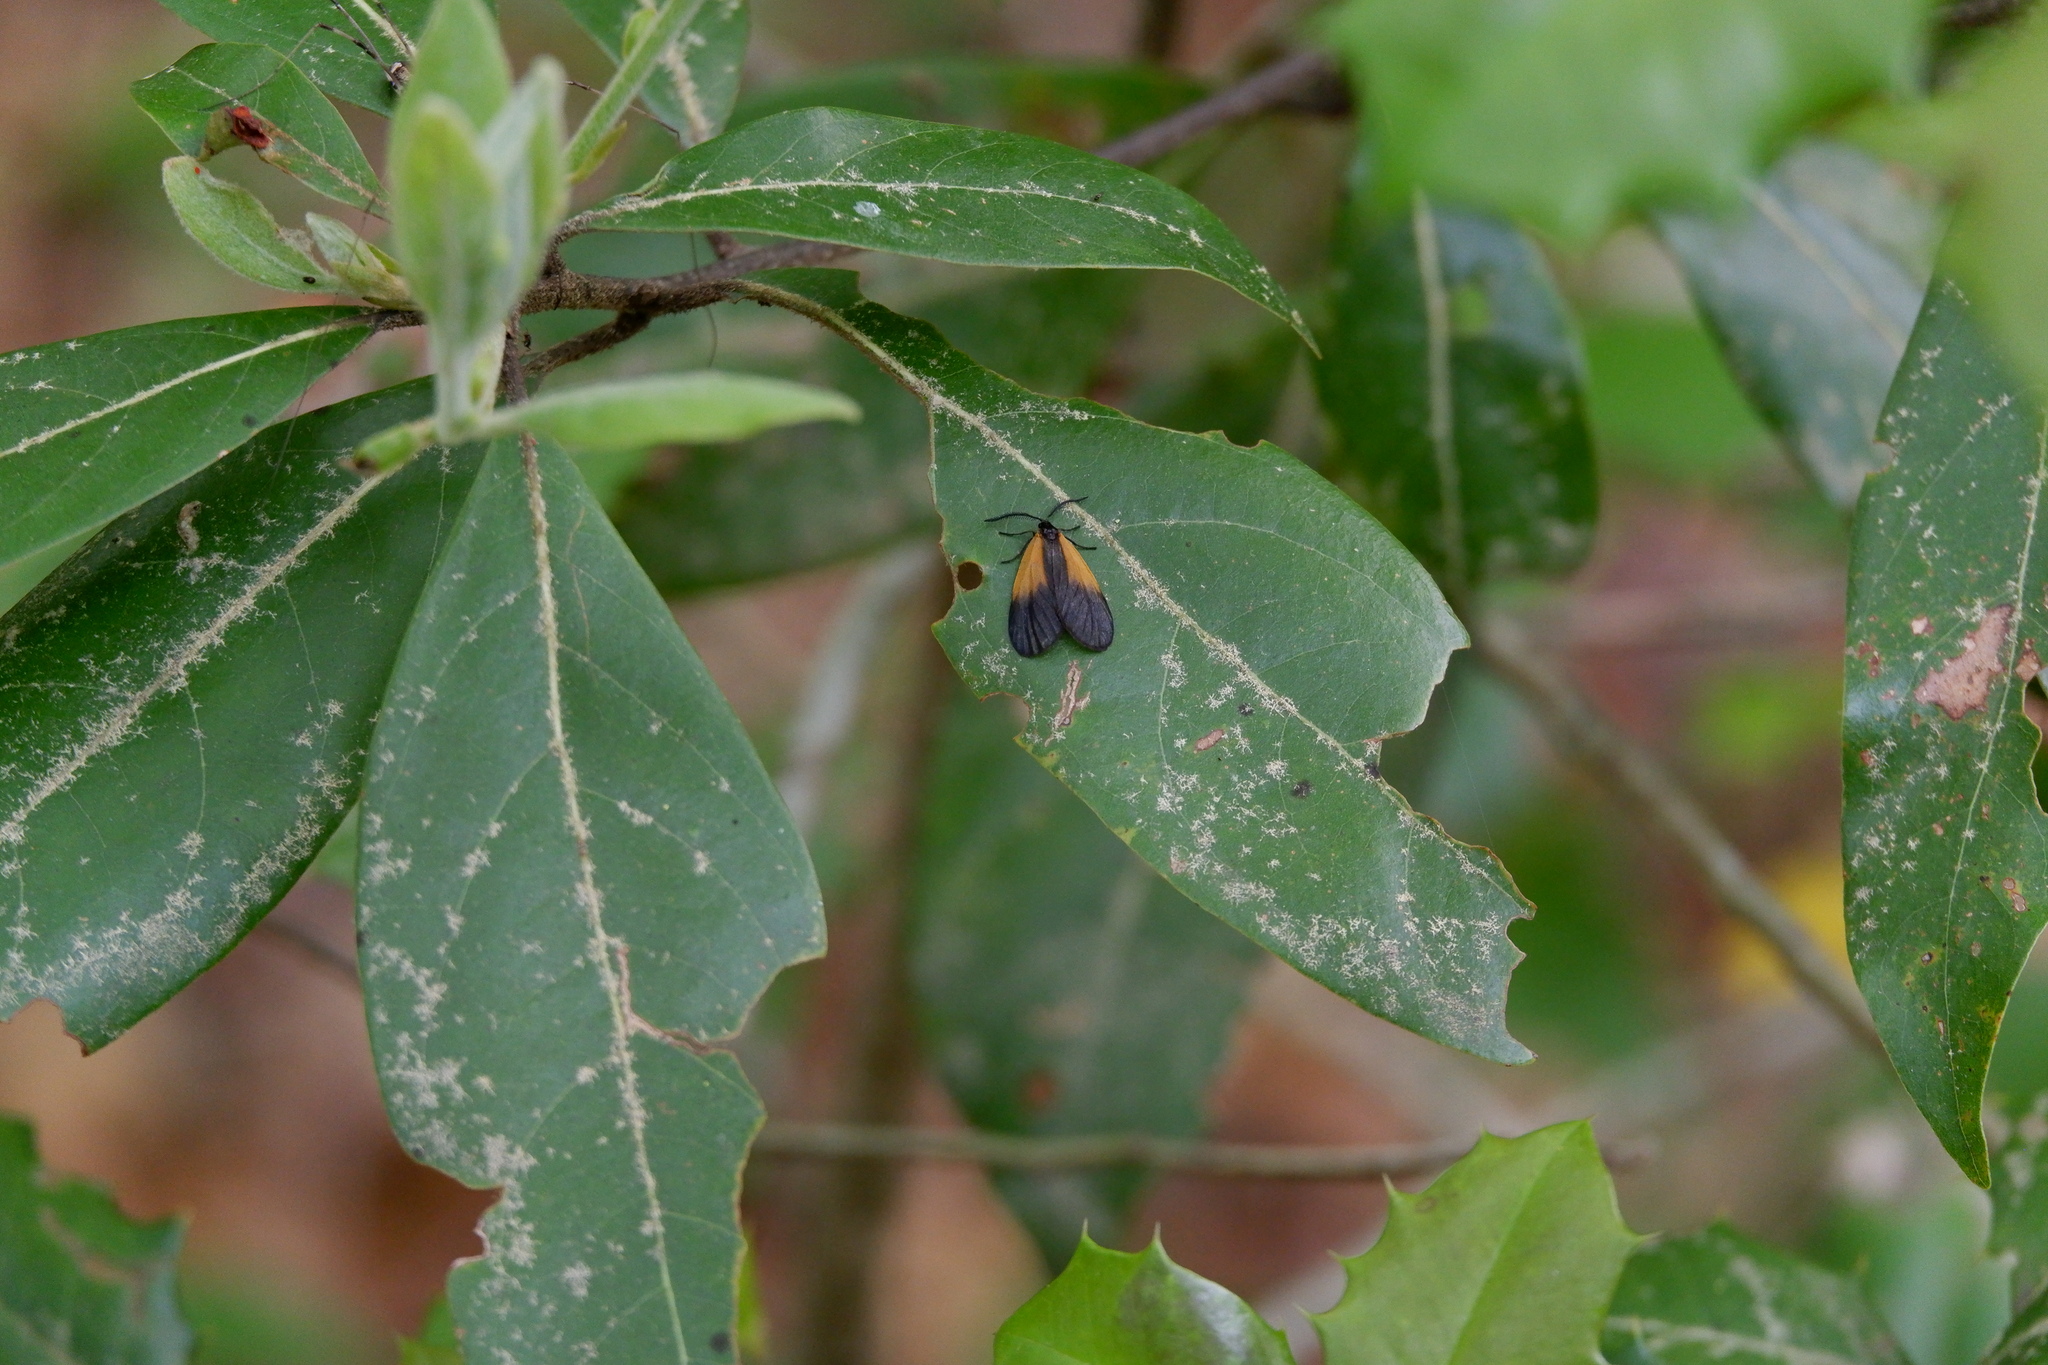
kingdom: Animalia
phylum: Arthropoda
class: Insecta
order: Lepidoptera
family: Zygaenidae
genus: Malthaca
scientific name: Malthaca dimidiata
